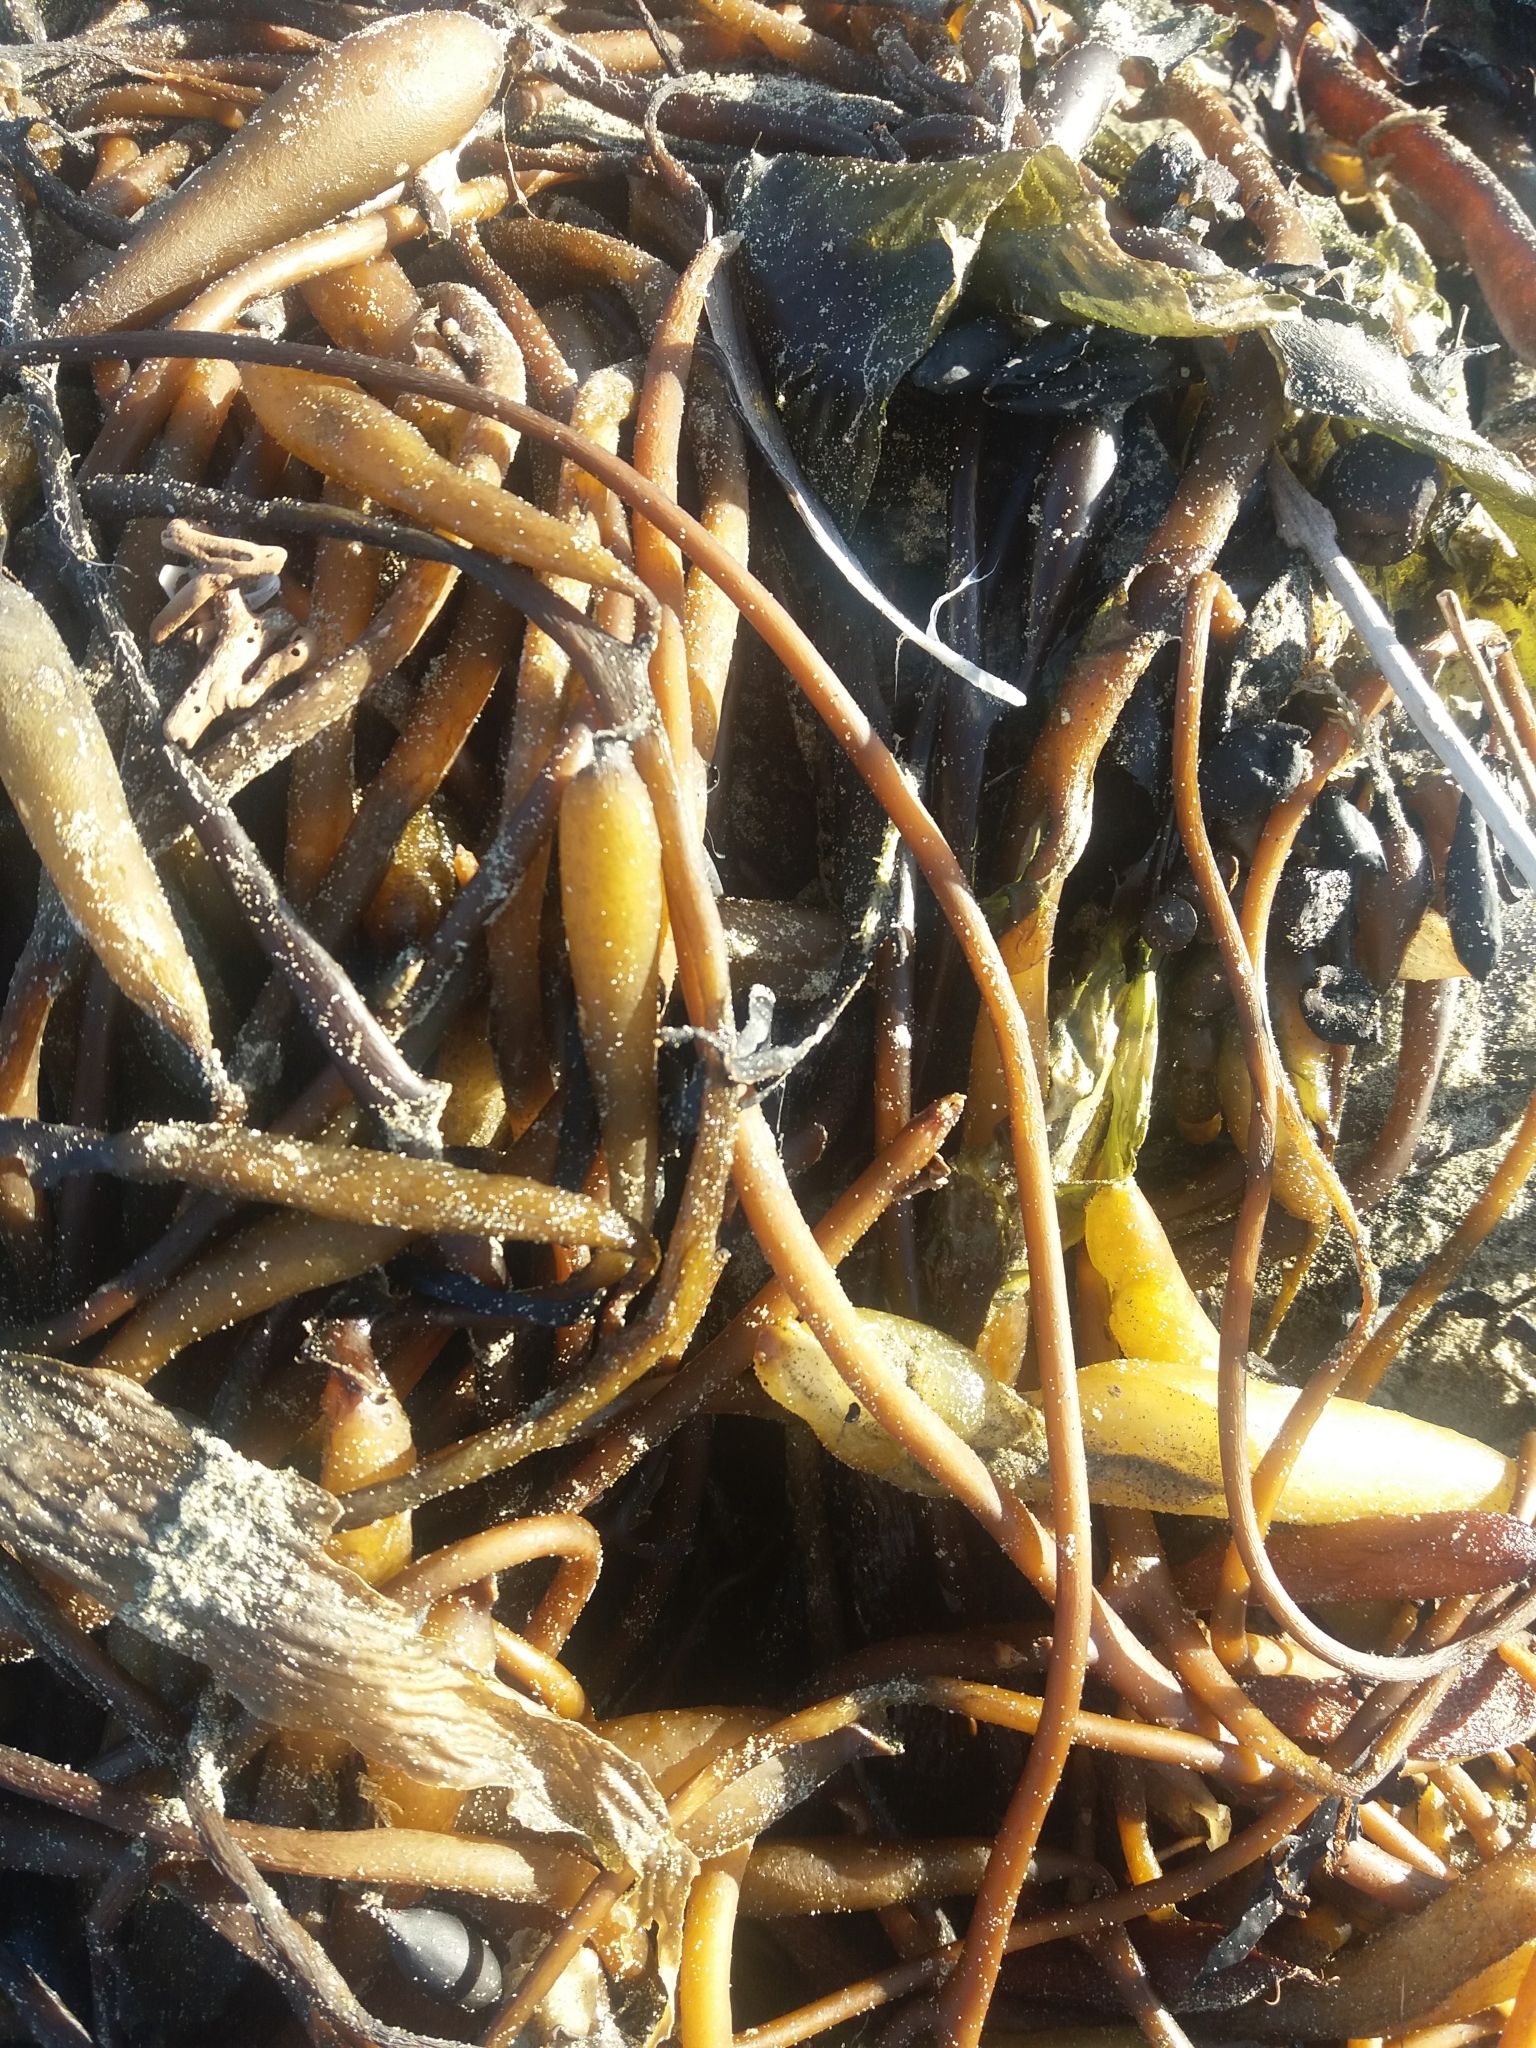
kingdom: Chromista
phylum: Ochrophyta
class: Phaeophyceae
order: Laminariales
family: Laminariaceae
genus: Macrocystis
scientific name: Macrocystis pyrifera
